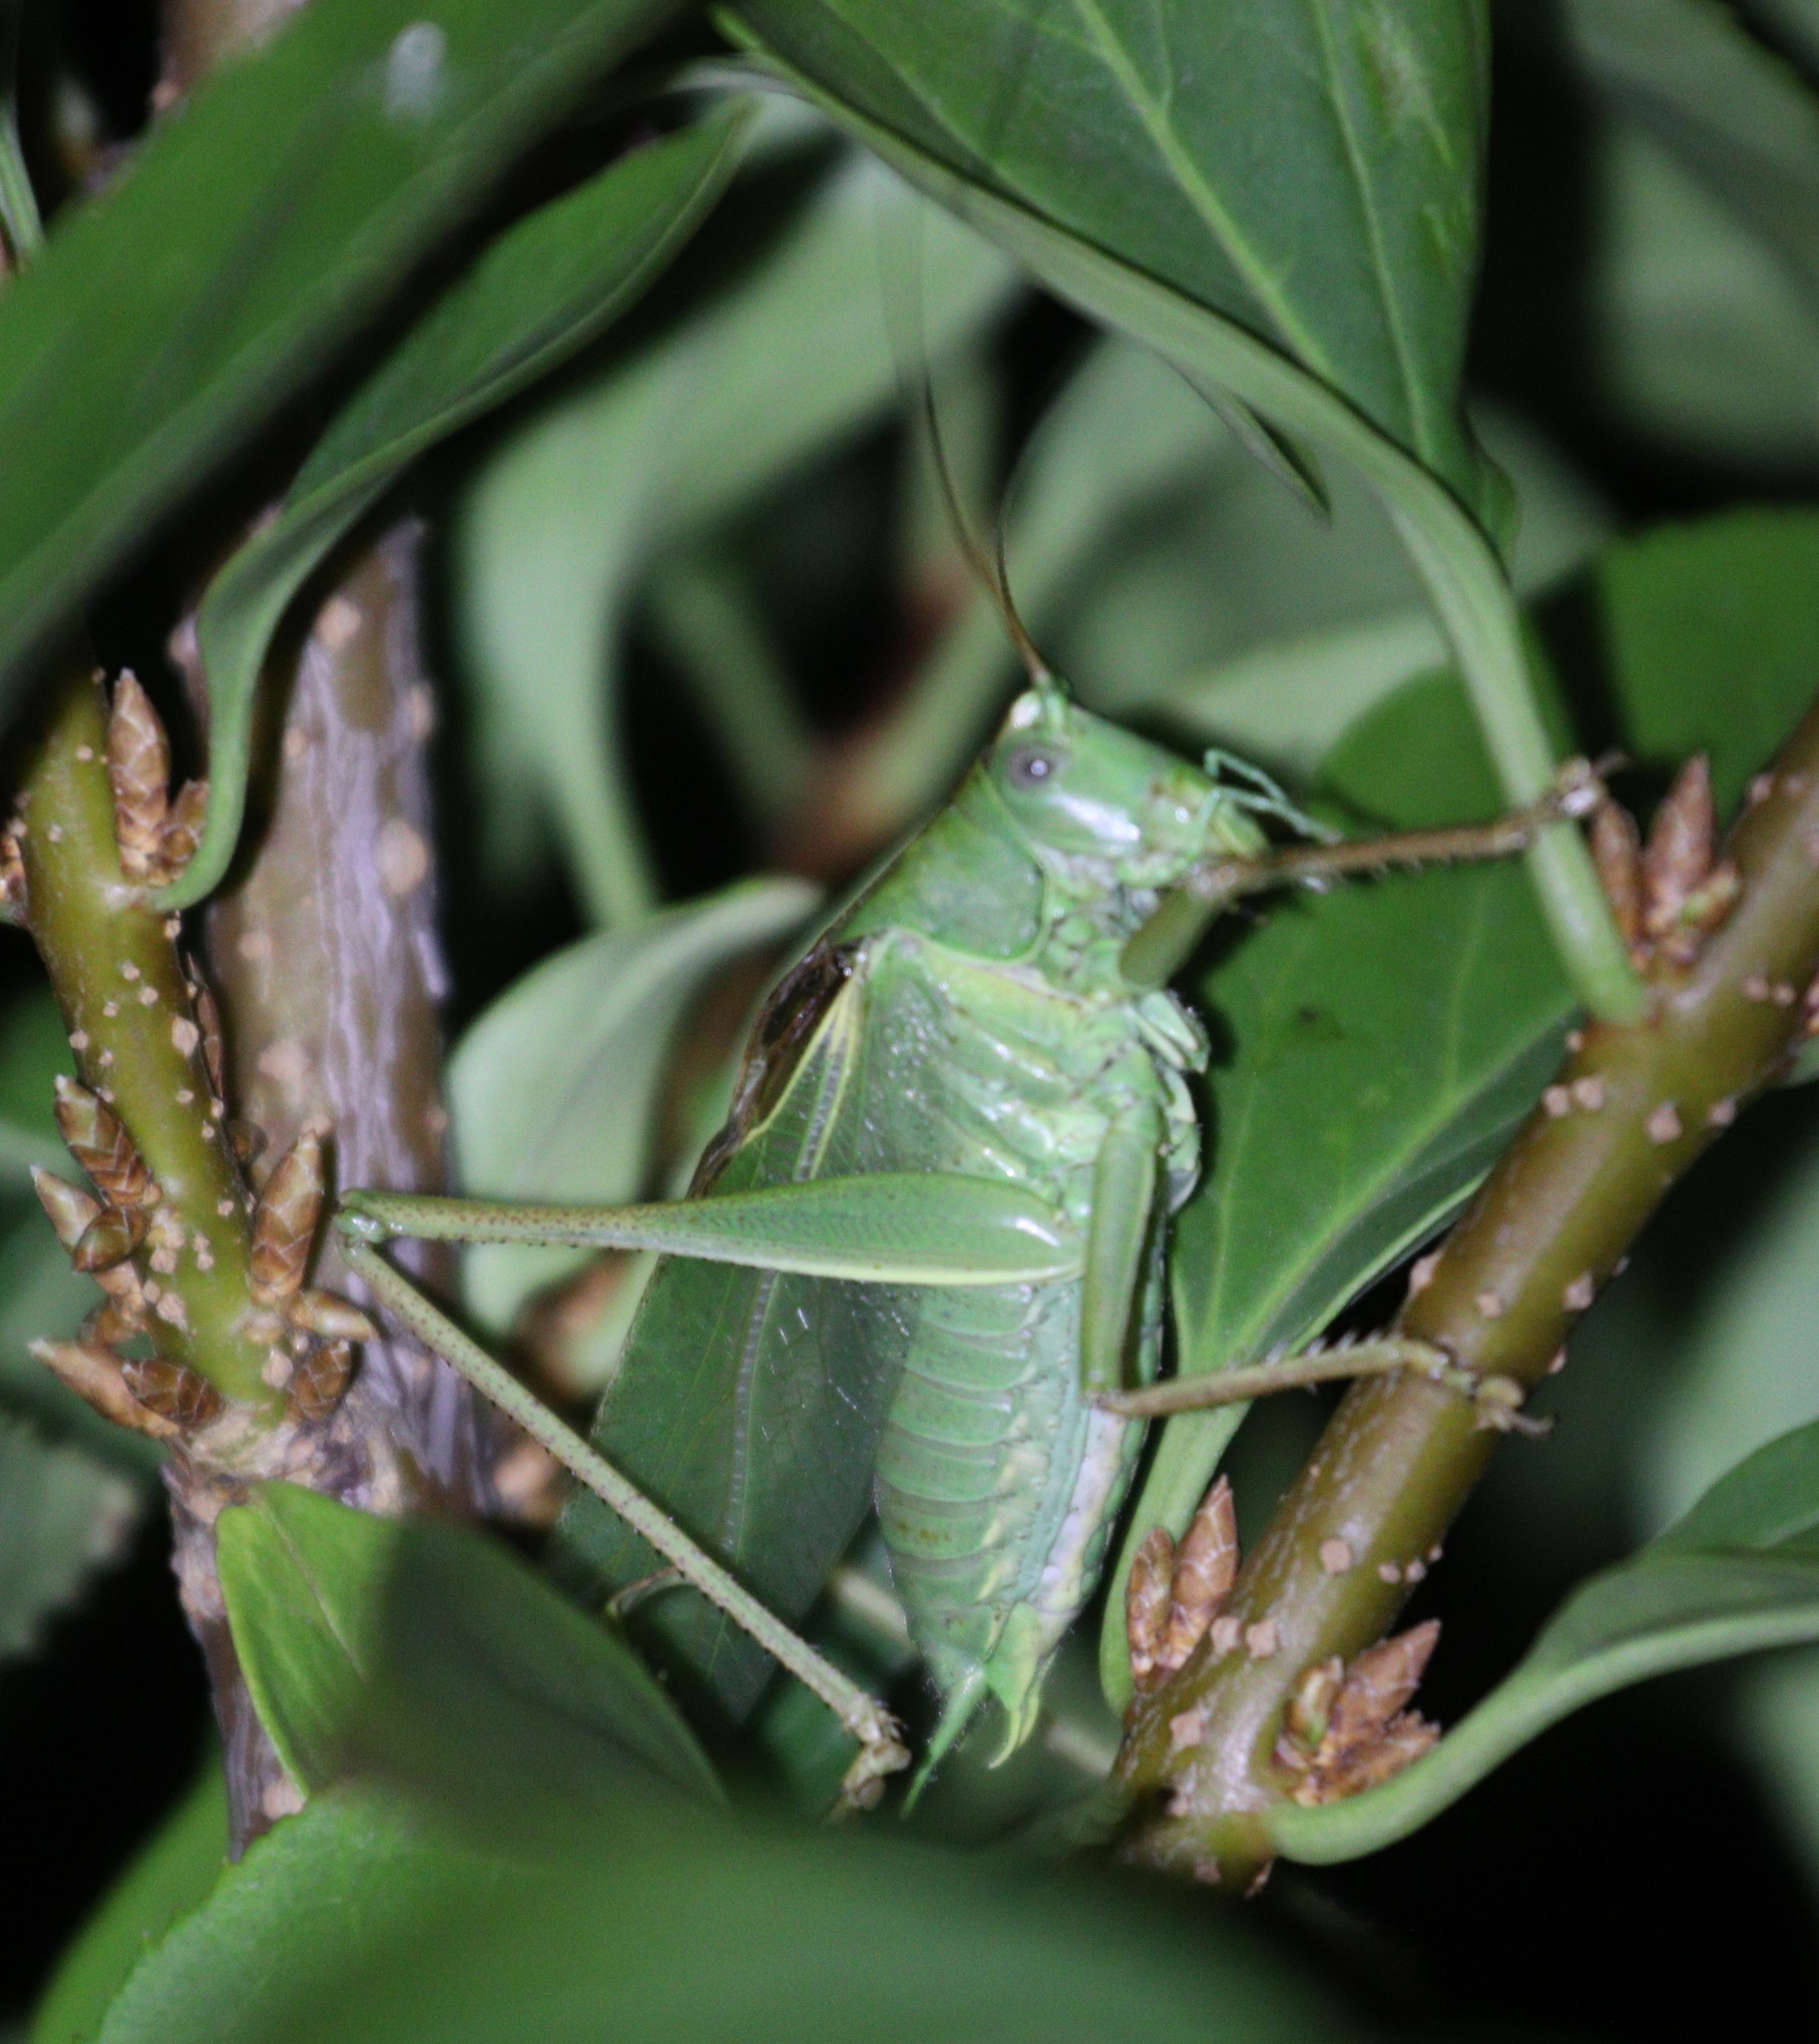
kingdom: Animalia
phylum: Arthropoda
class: Insecta
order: Orthoptera
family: Tettigoniidae
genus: Tettigonia
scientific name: Tettigonia viridissima
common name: Great green bush-cricket
